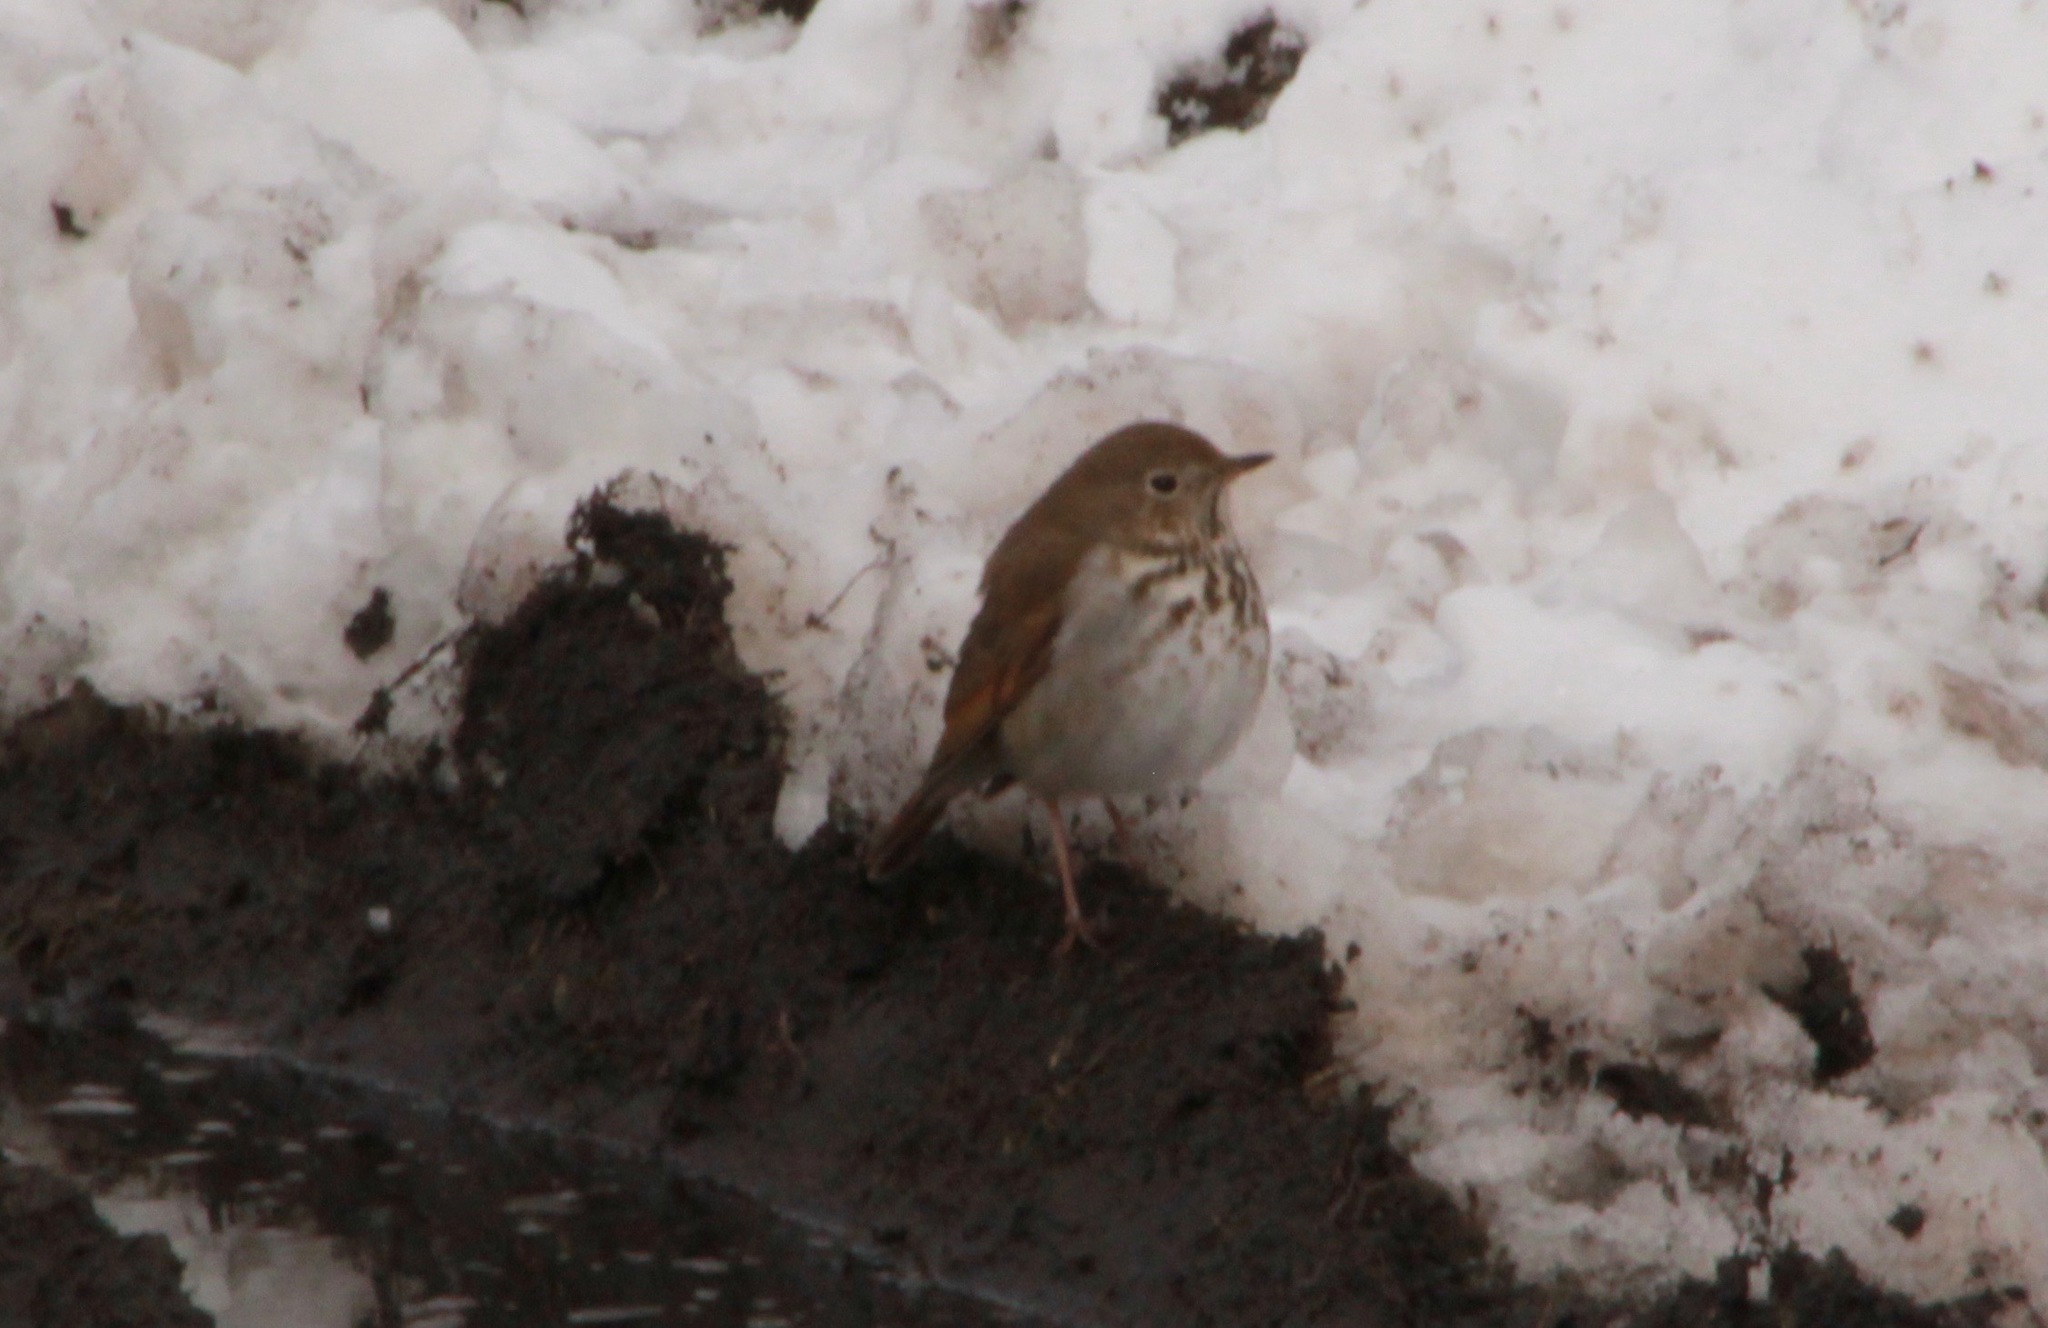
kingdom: Animalia
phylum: Chordata
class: Aves
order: Passeriformes
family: Turdidae
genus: Catharus
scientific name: Catharus guttatus
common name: Hermit thrush
